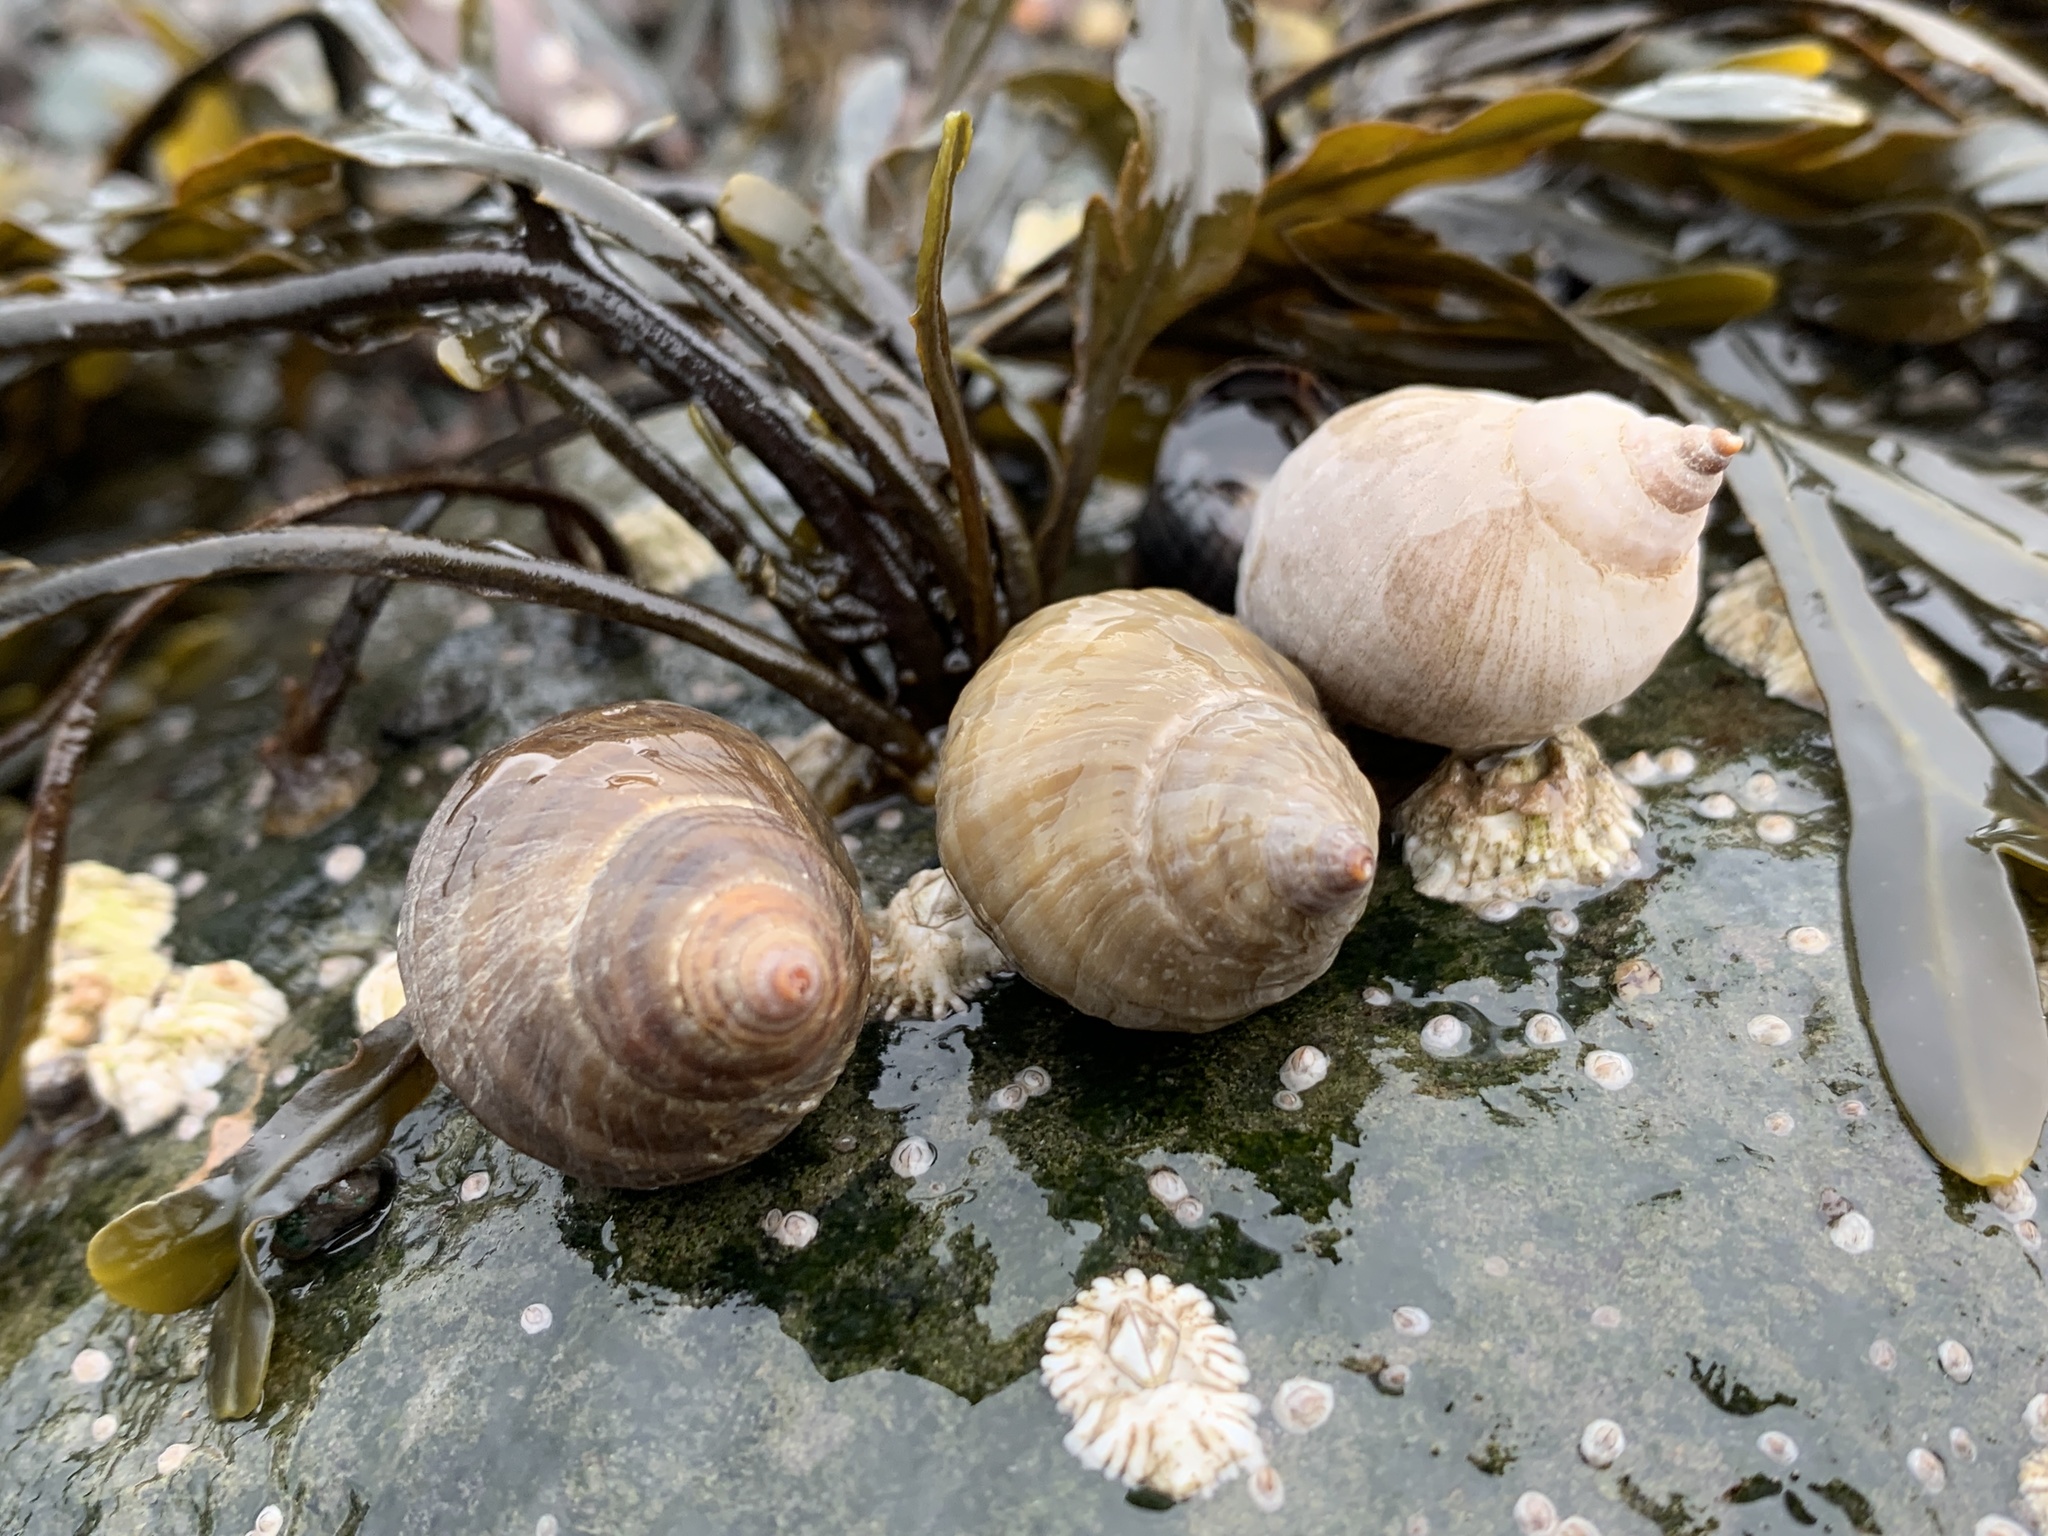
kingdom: Animalia
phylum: Mollusca
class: Gastropoda
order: Neogastropoda
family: Muricidae
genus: Nucella
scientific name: Nucella lapillus
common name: Dog whelk
